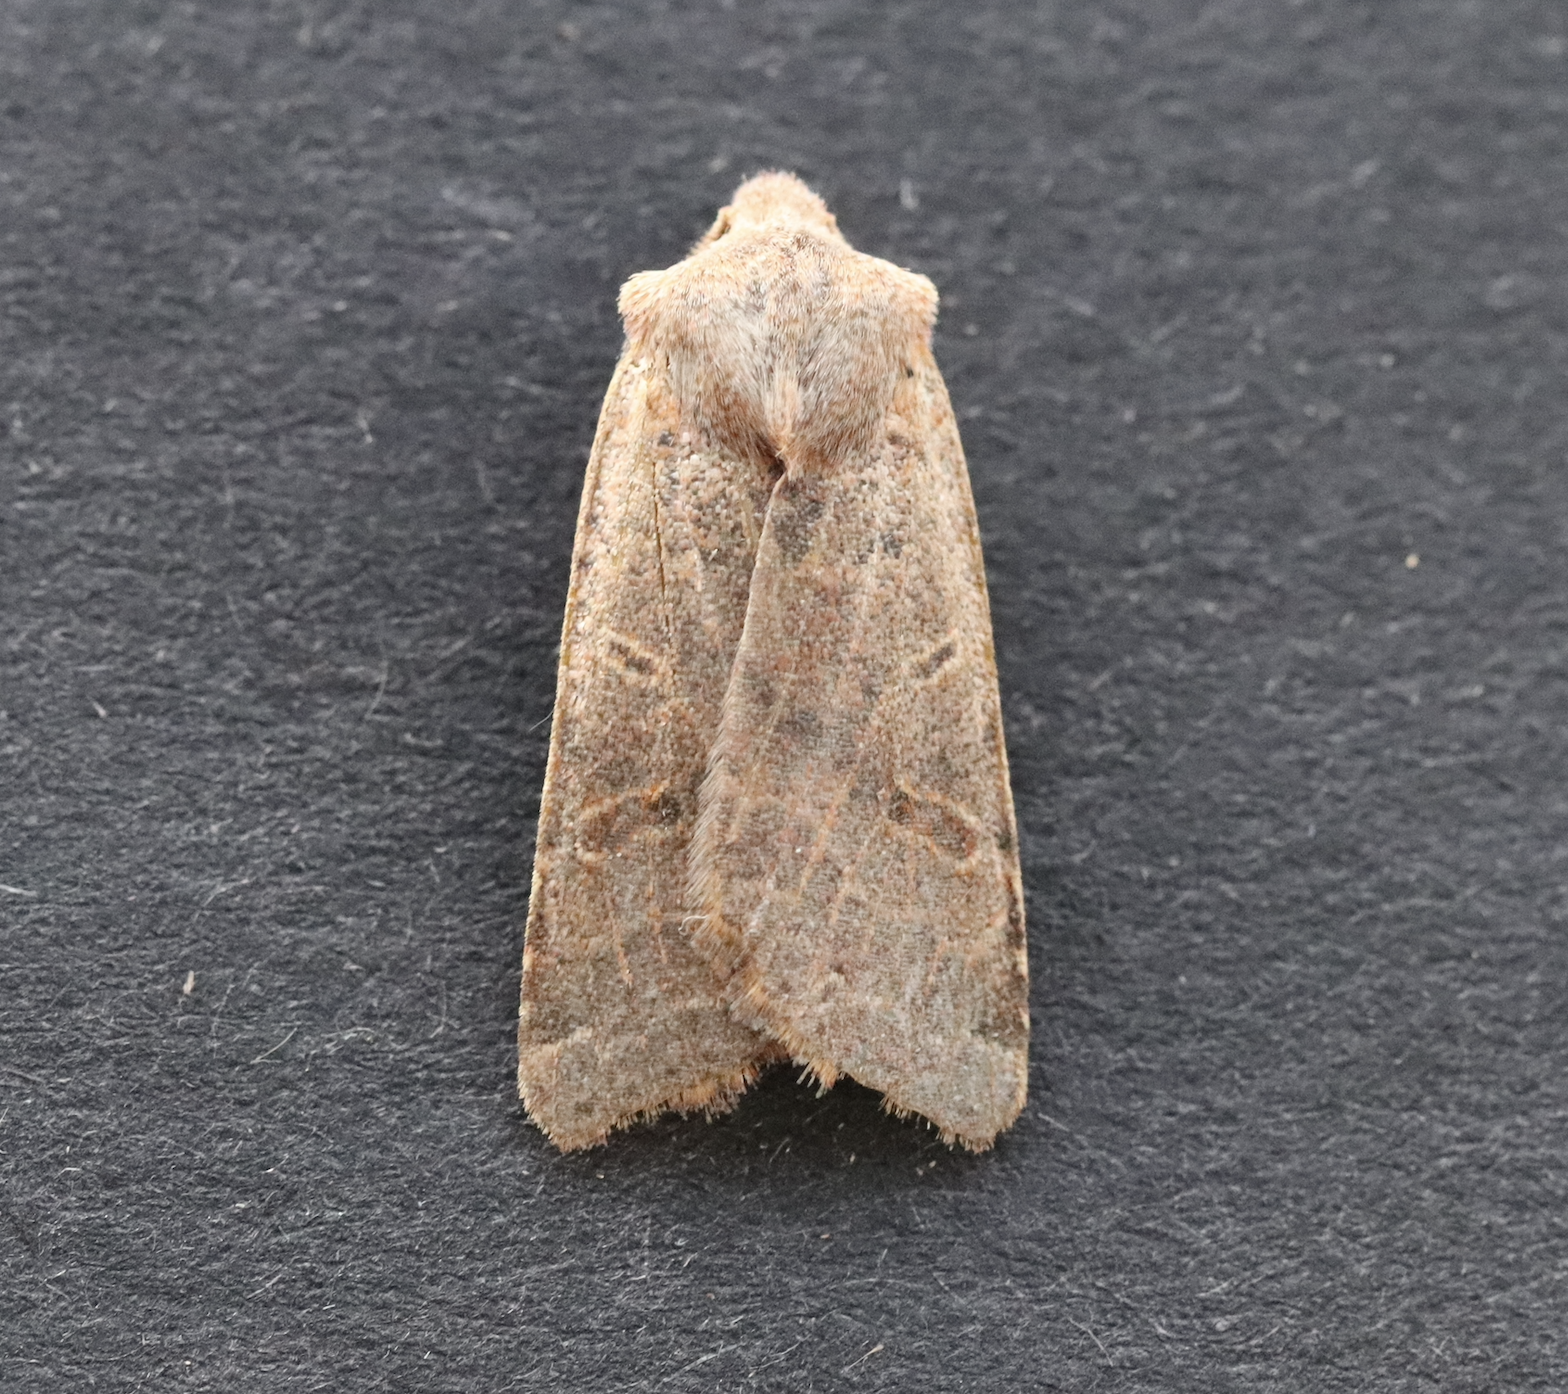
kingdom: Animalia
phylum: Arthropoda
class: Insecta
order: Lepidoptera
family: Noctuidae
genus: Agrochola
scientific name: Agrochola lychnidis
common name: Beaded chestnut
